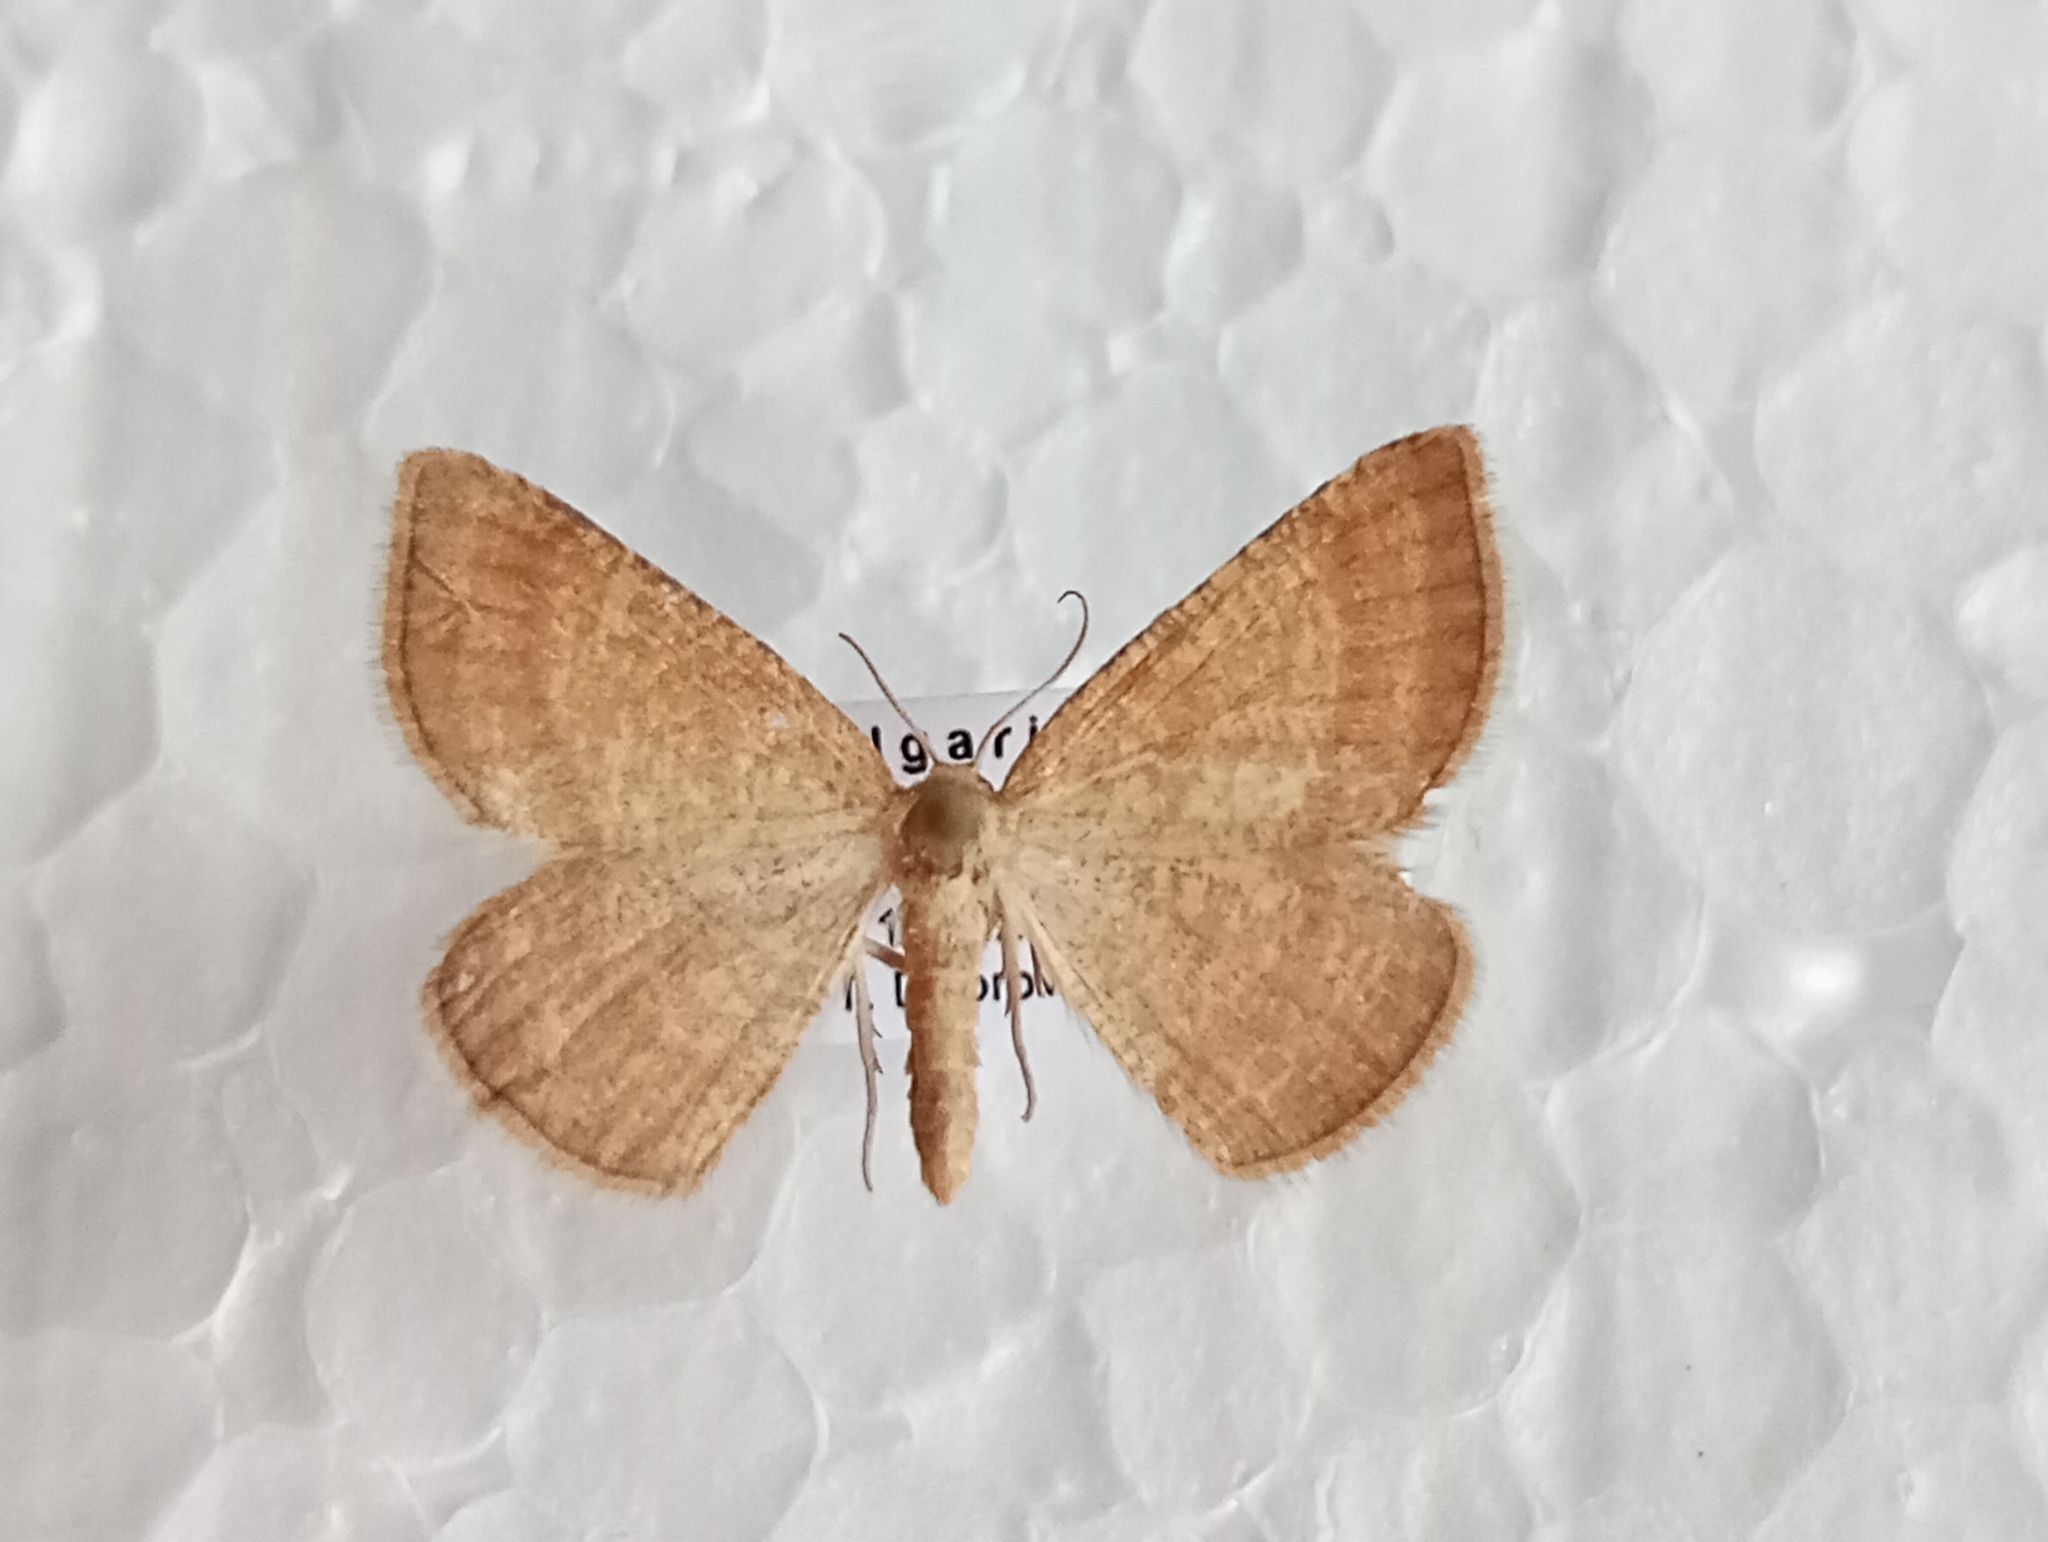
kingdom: Animalia
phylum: Arthropoda
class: Insecta
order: Lepidoptera
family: Geometridae
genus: Aplasta
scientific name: Aplasta ononaria
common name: Rest harrow
